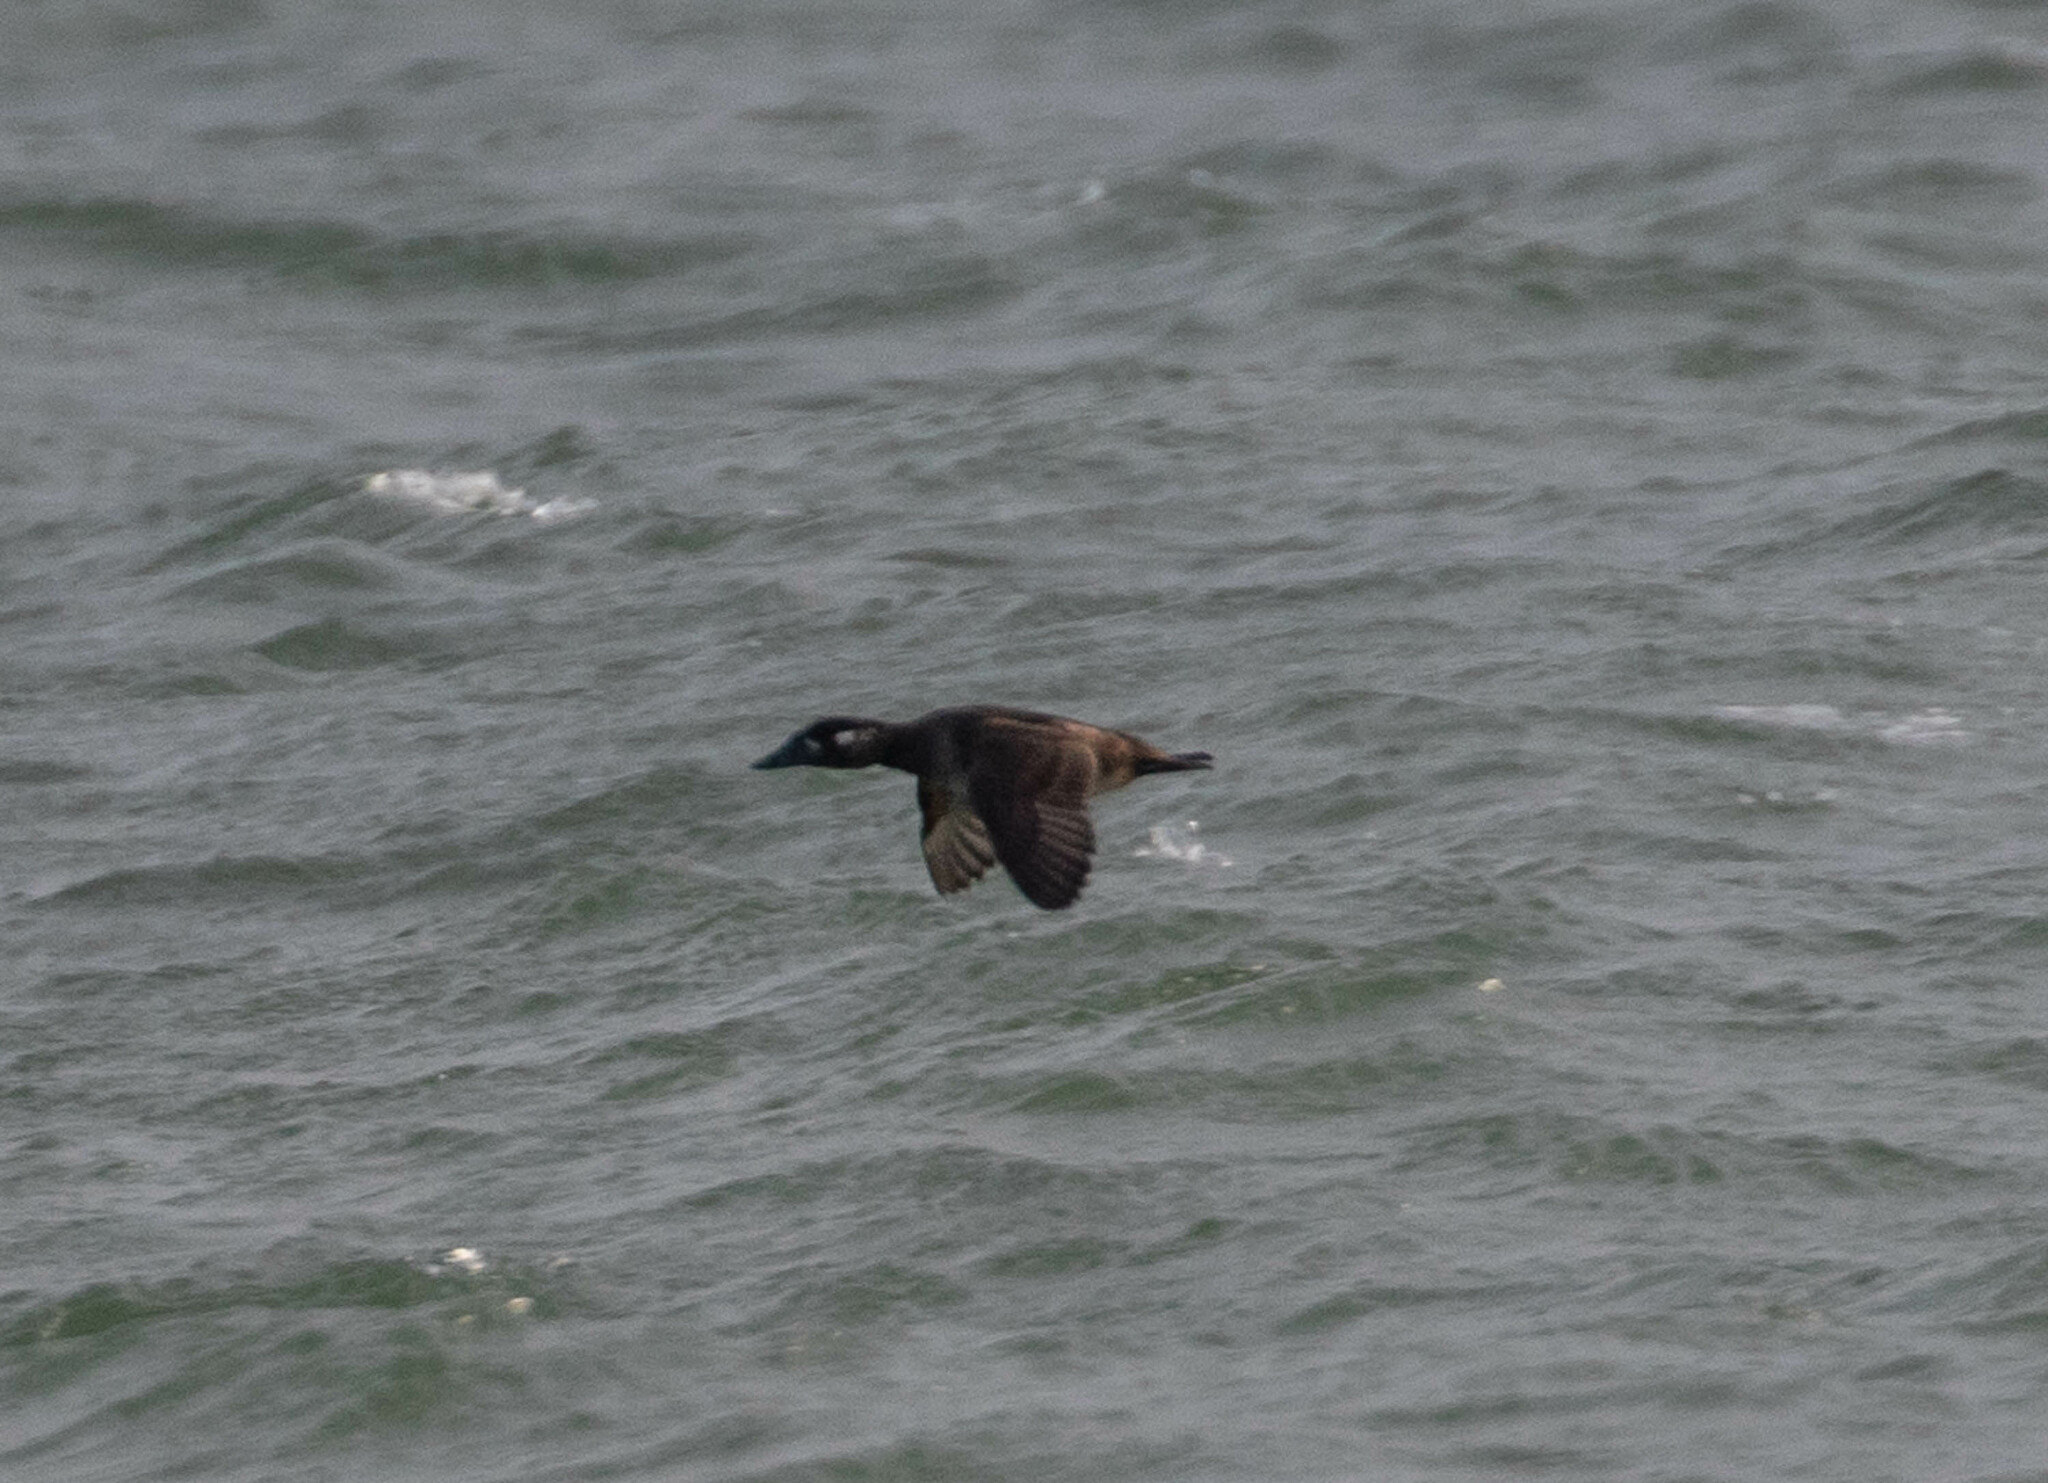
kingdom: Animalia
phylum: Chordata
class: Aves
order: Anseriformes
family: Anatidae
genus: Melanitta
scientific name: Melanitta perspicillata
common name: Surf scoter
